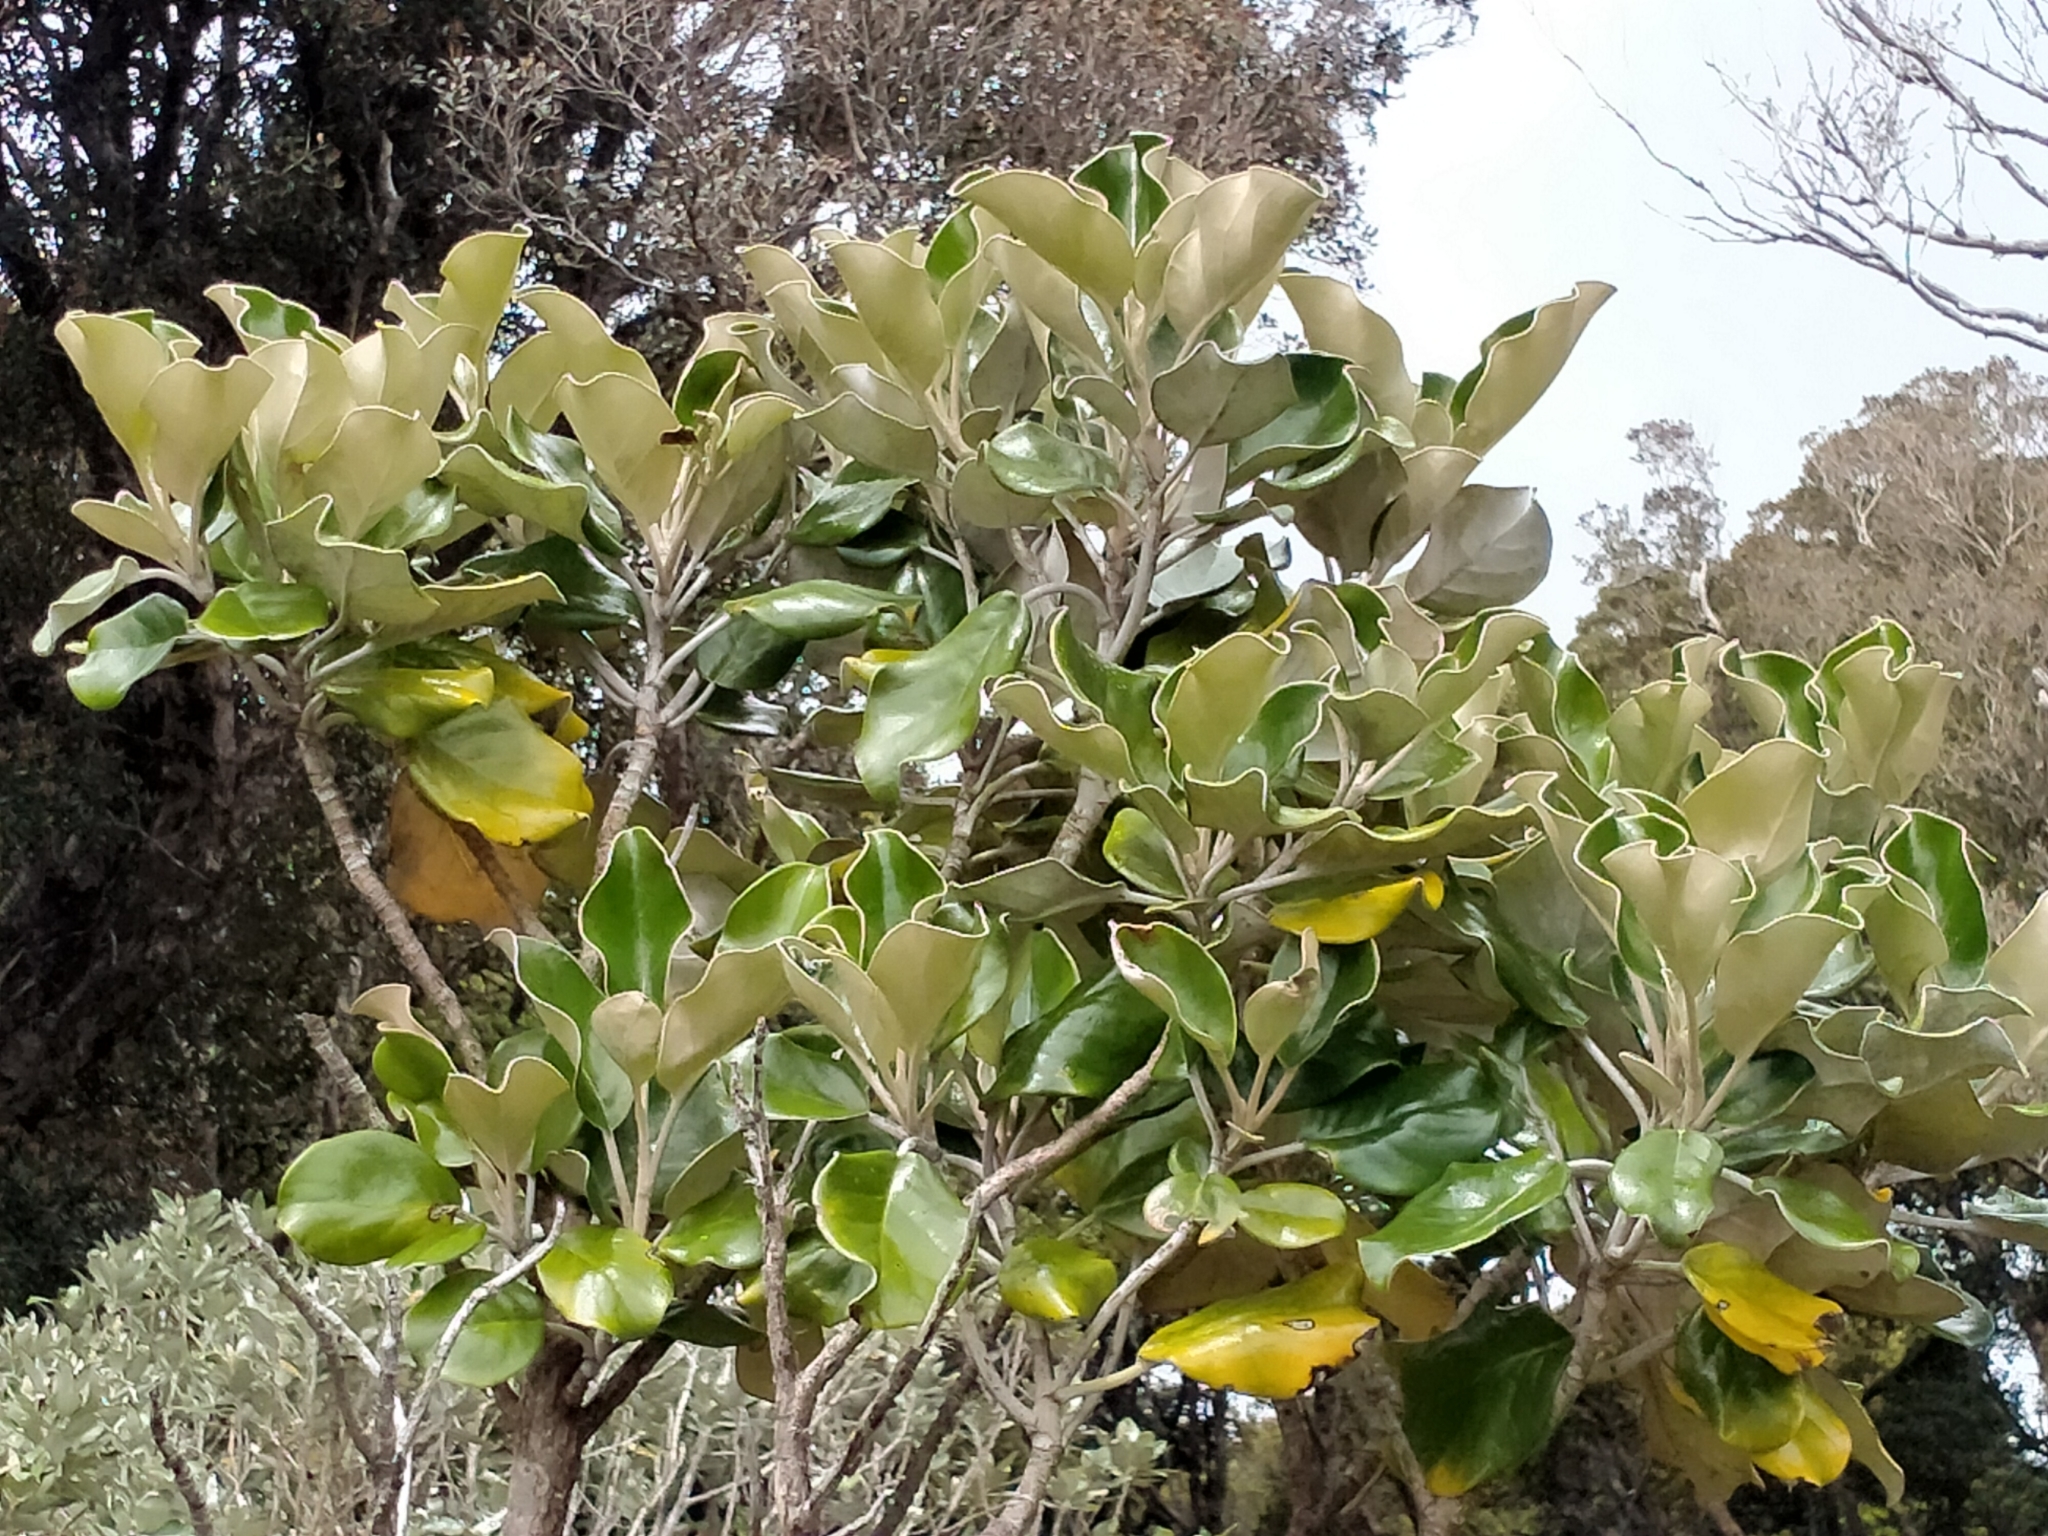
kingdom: Plantae
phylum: Tracheophyta
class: Magnoliopsida
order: Asterales
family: Asteraceae
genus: Brachyglottis
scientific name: Brachyglottis rotundifolia
